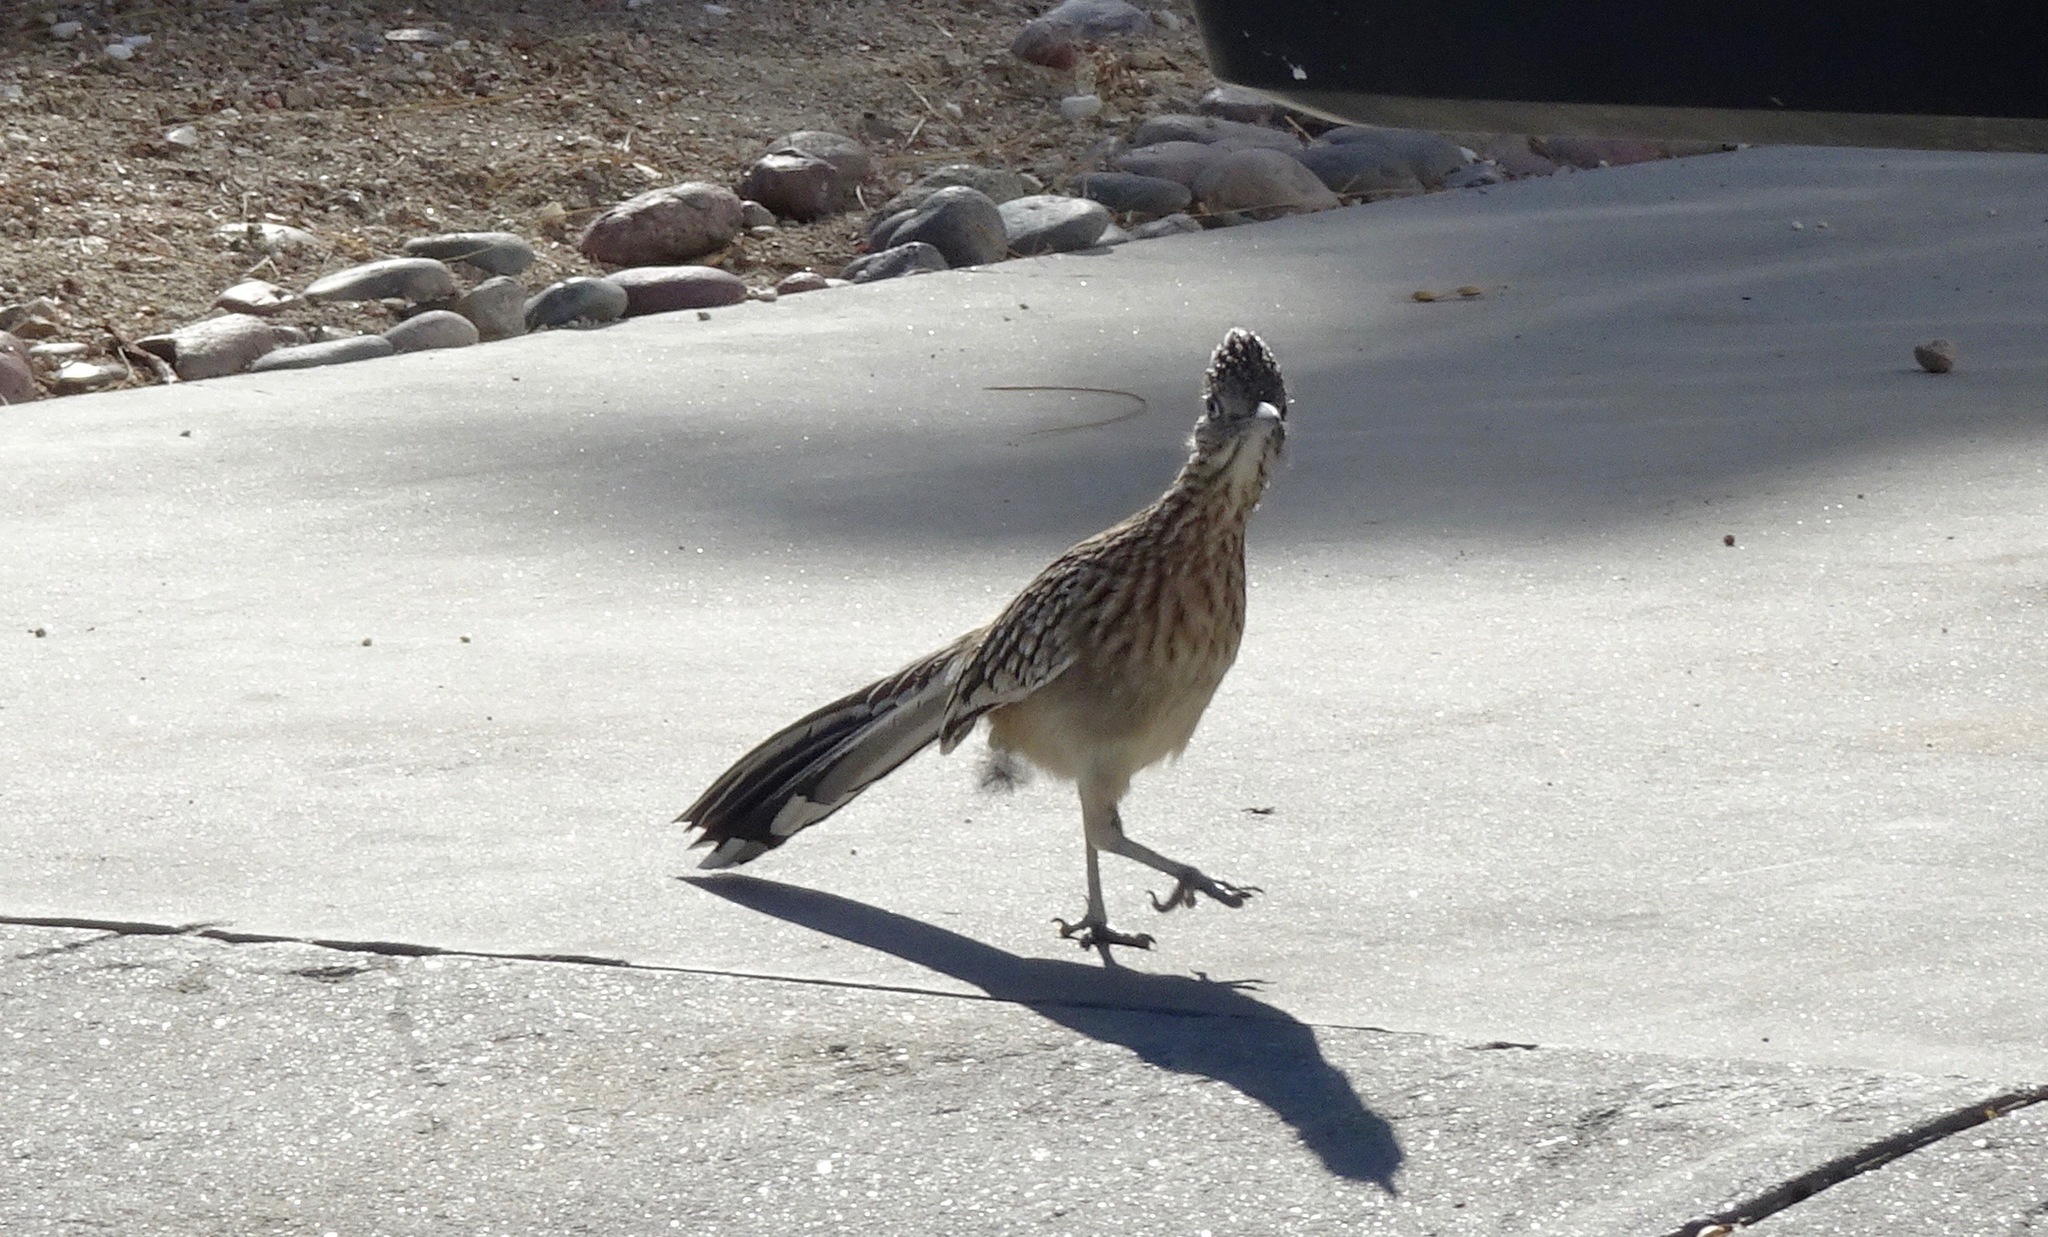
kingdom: Animalia
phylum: Chordata
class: Aves
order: Cuculiformes
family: Cuculidae
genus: Geococcyx
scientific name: Geococcyx californianus
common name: Greater roadrunner
